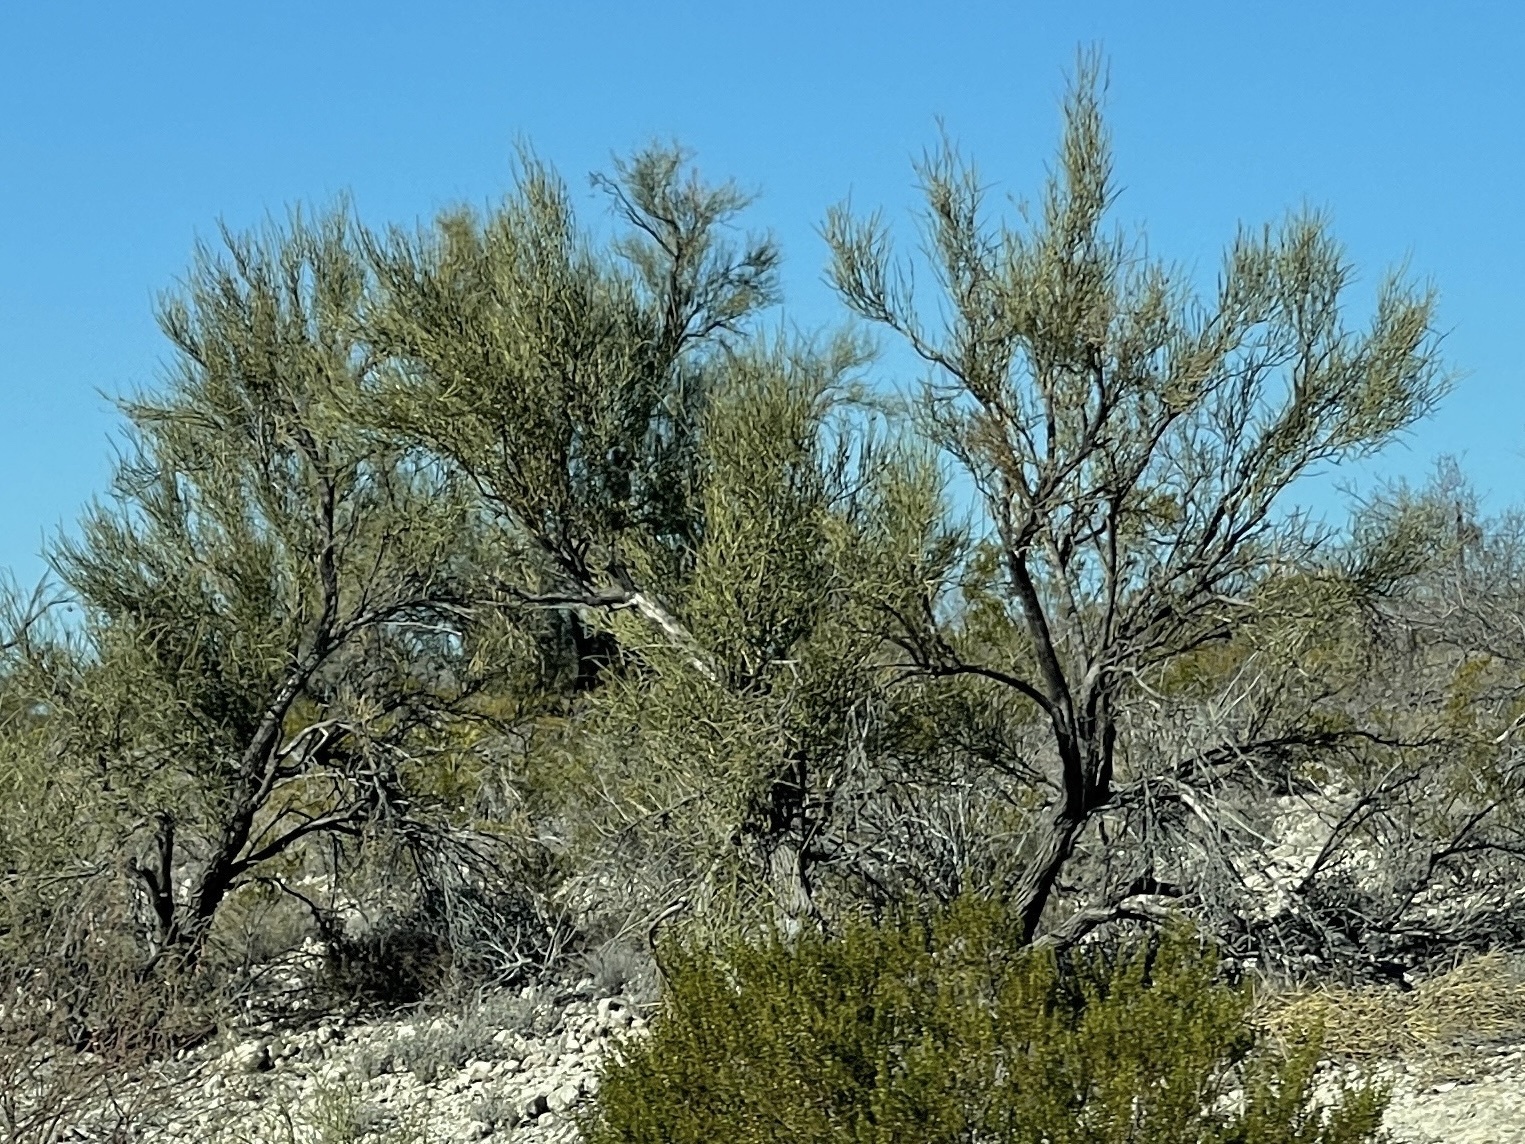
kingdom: Plantae
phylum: Tracheophyta
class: Magnoliopsida
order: Celastrales
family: Celastraceae
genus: Canotia
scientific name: Canotia holacantha
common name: Crucifixion thorns
